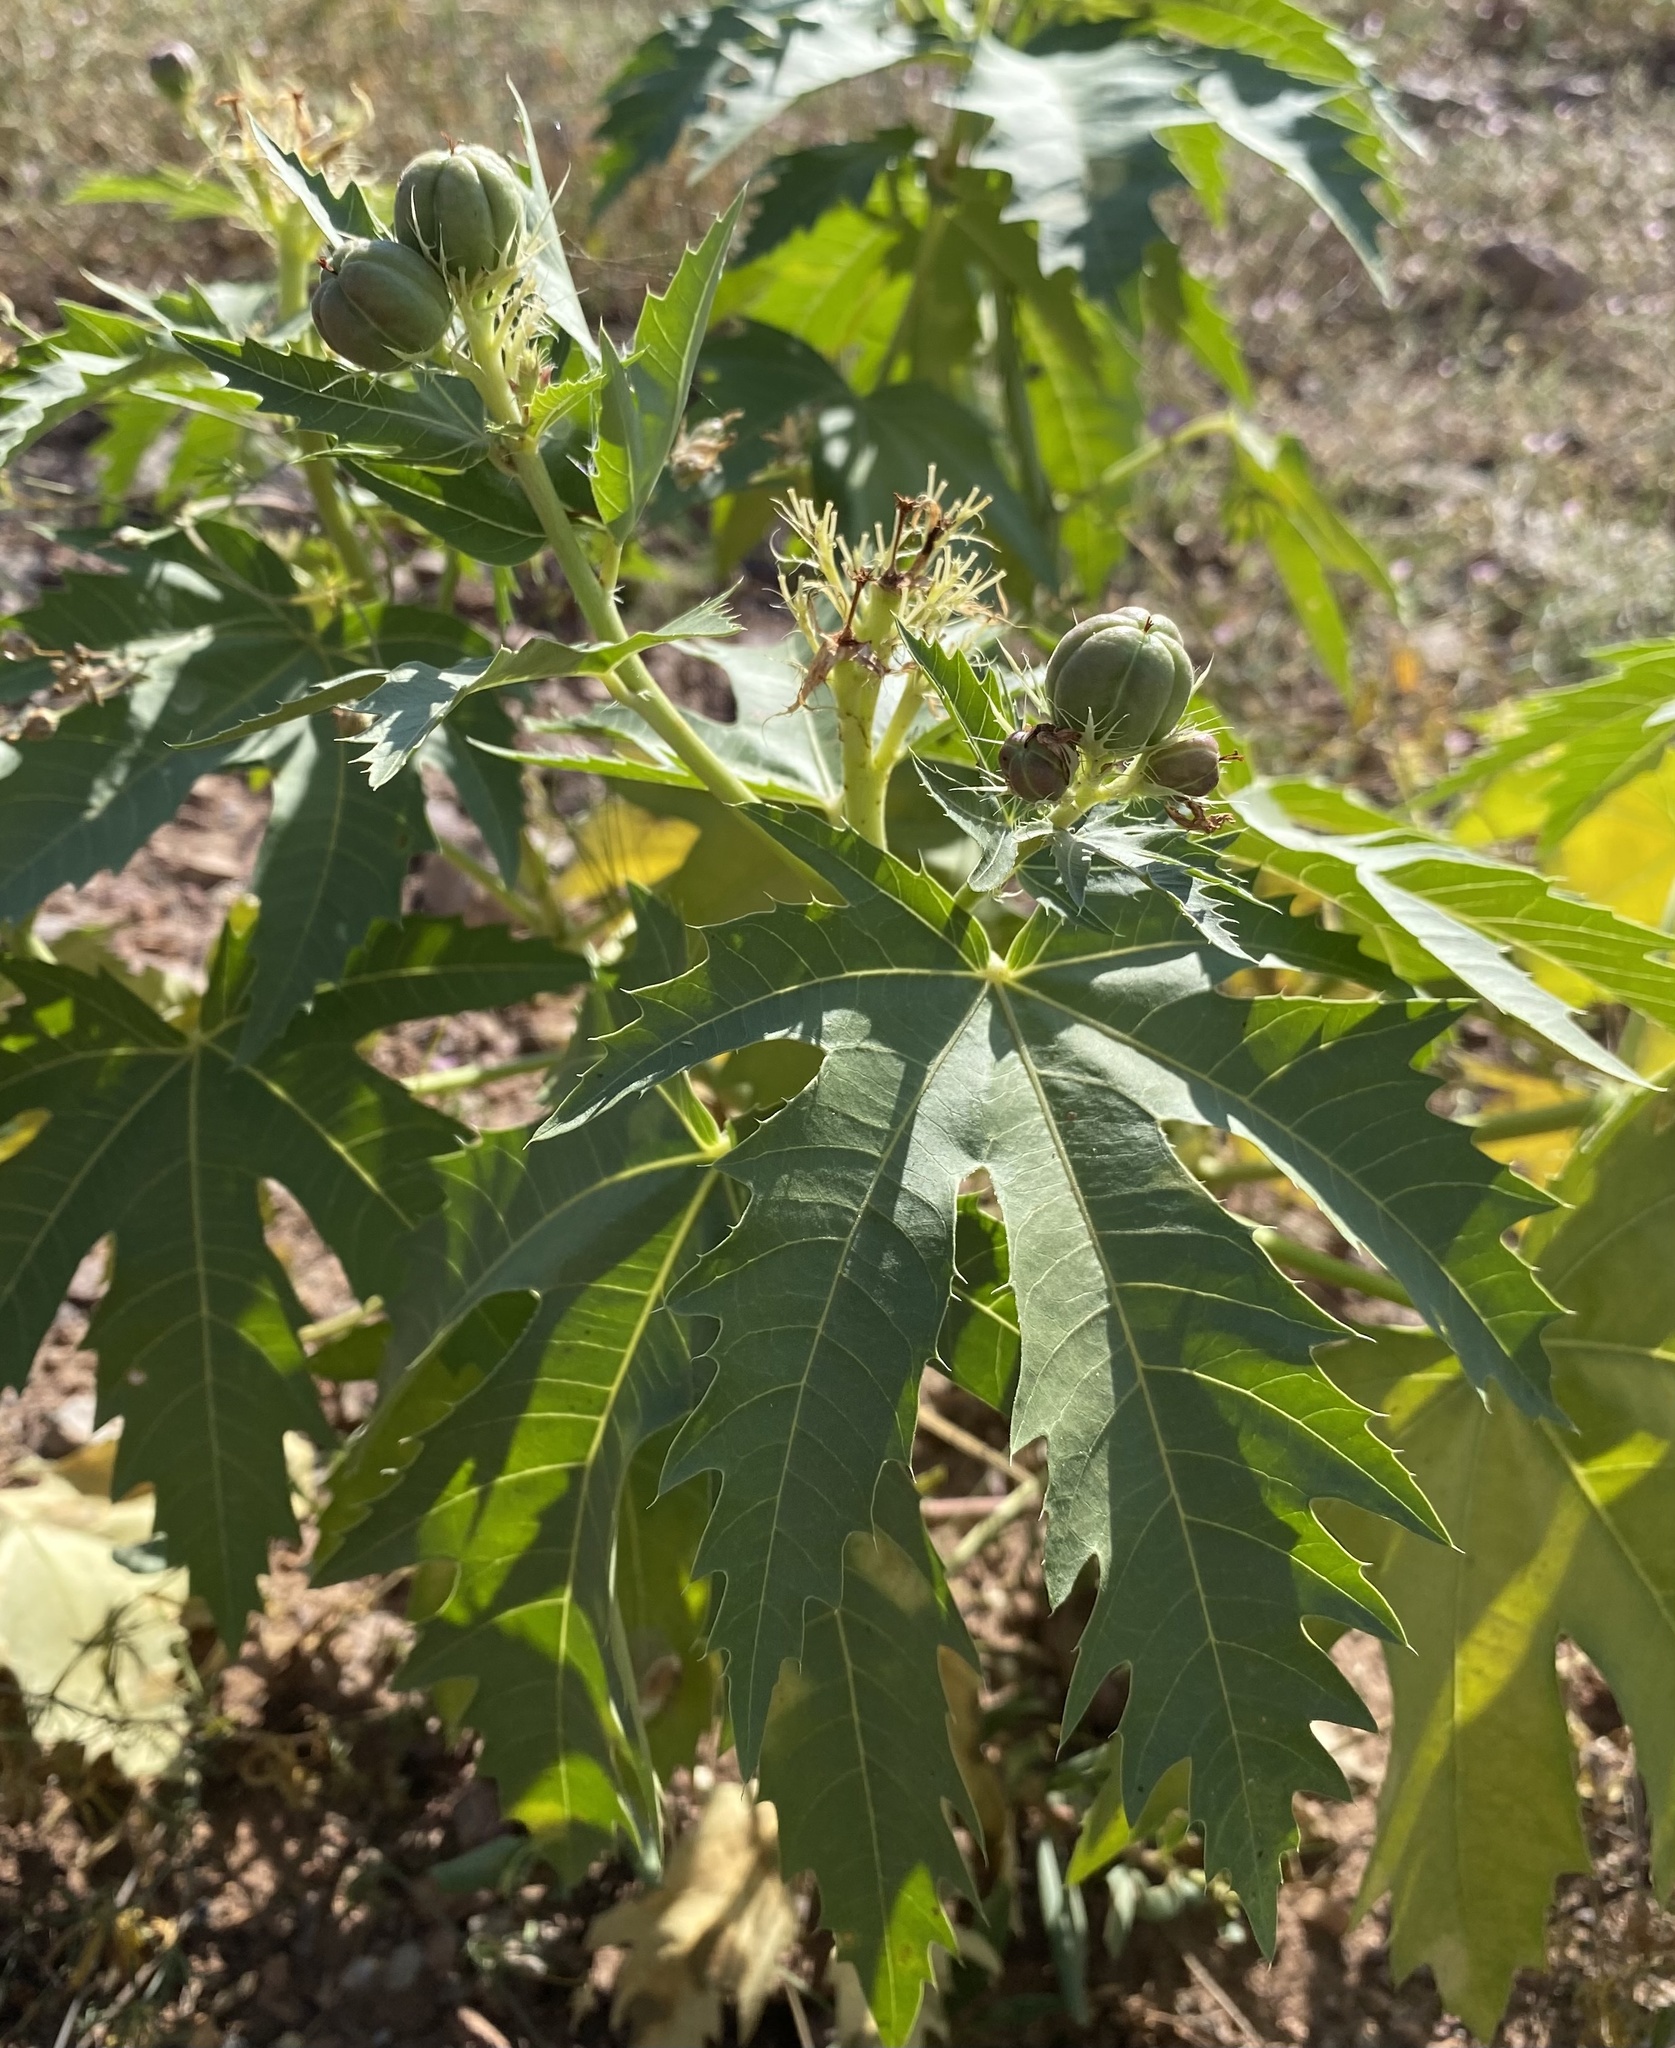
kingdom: Plantae
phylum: Tracheophyta
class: Magnoliopsida
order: Malpighiales
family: Euphorbiaceae
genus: Jatropha
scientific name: Jatropha macrorhiza
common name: Ragged nettlespurge
